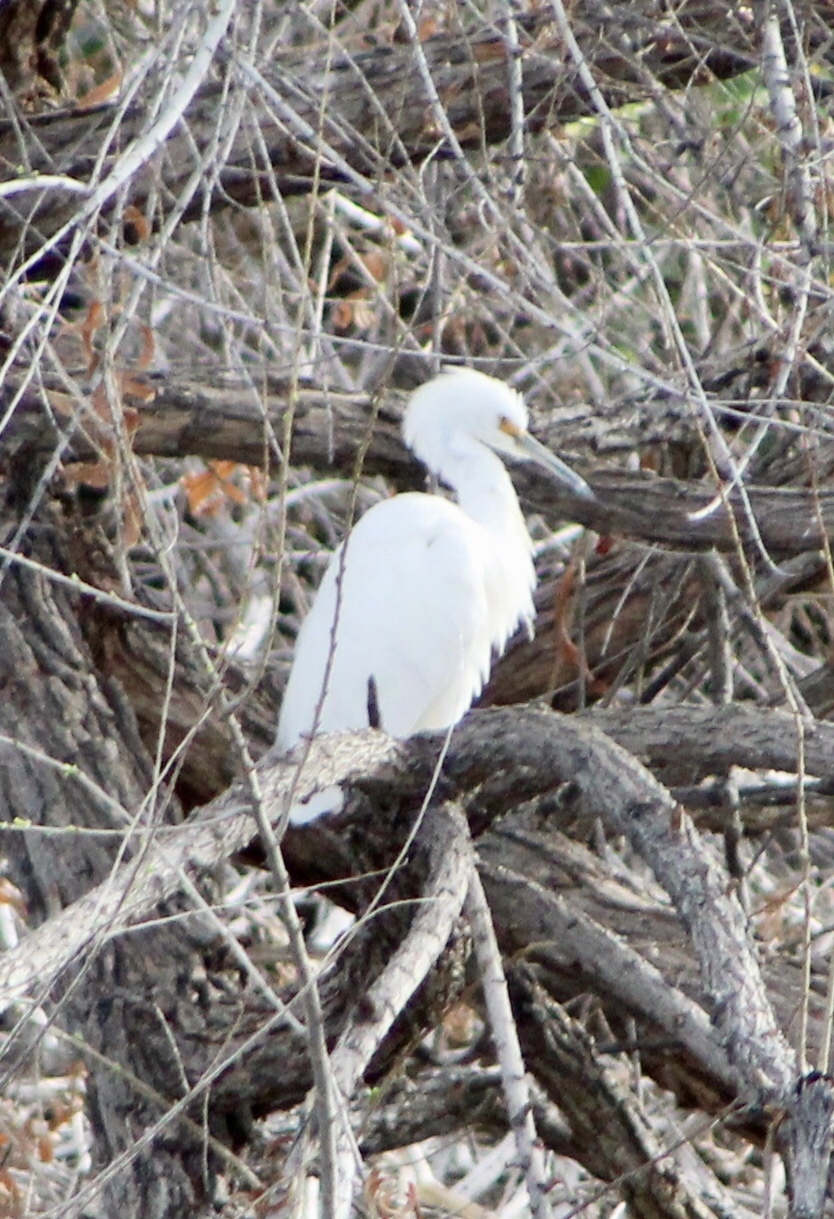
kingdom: Animalia
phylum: Chordata
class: Aves
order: Pelecaniformes
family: Ardeidae
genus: Egretta
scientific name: Egretta thula
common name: Snowy egret
